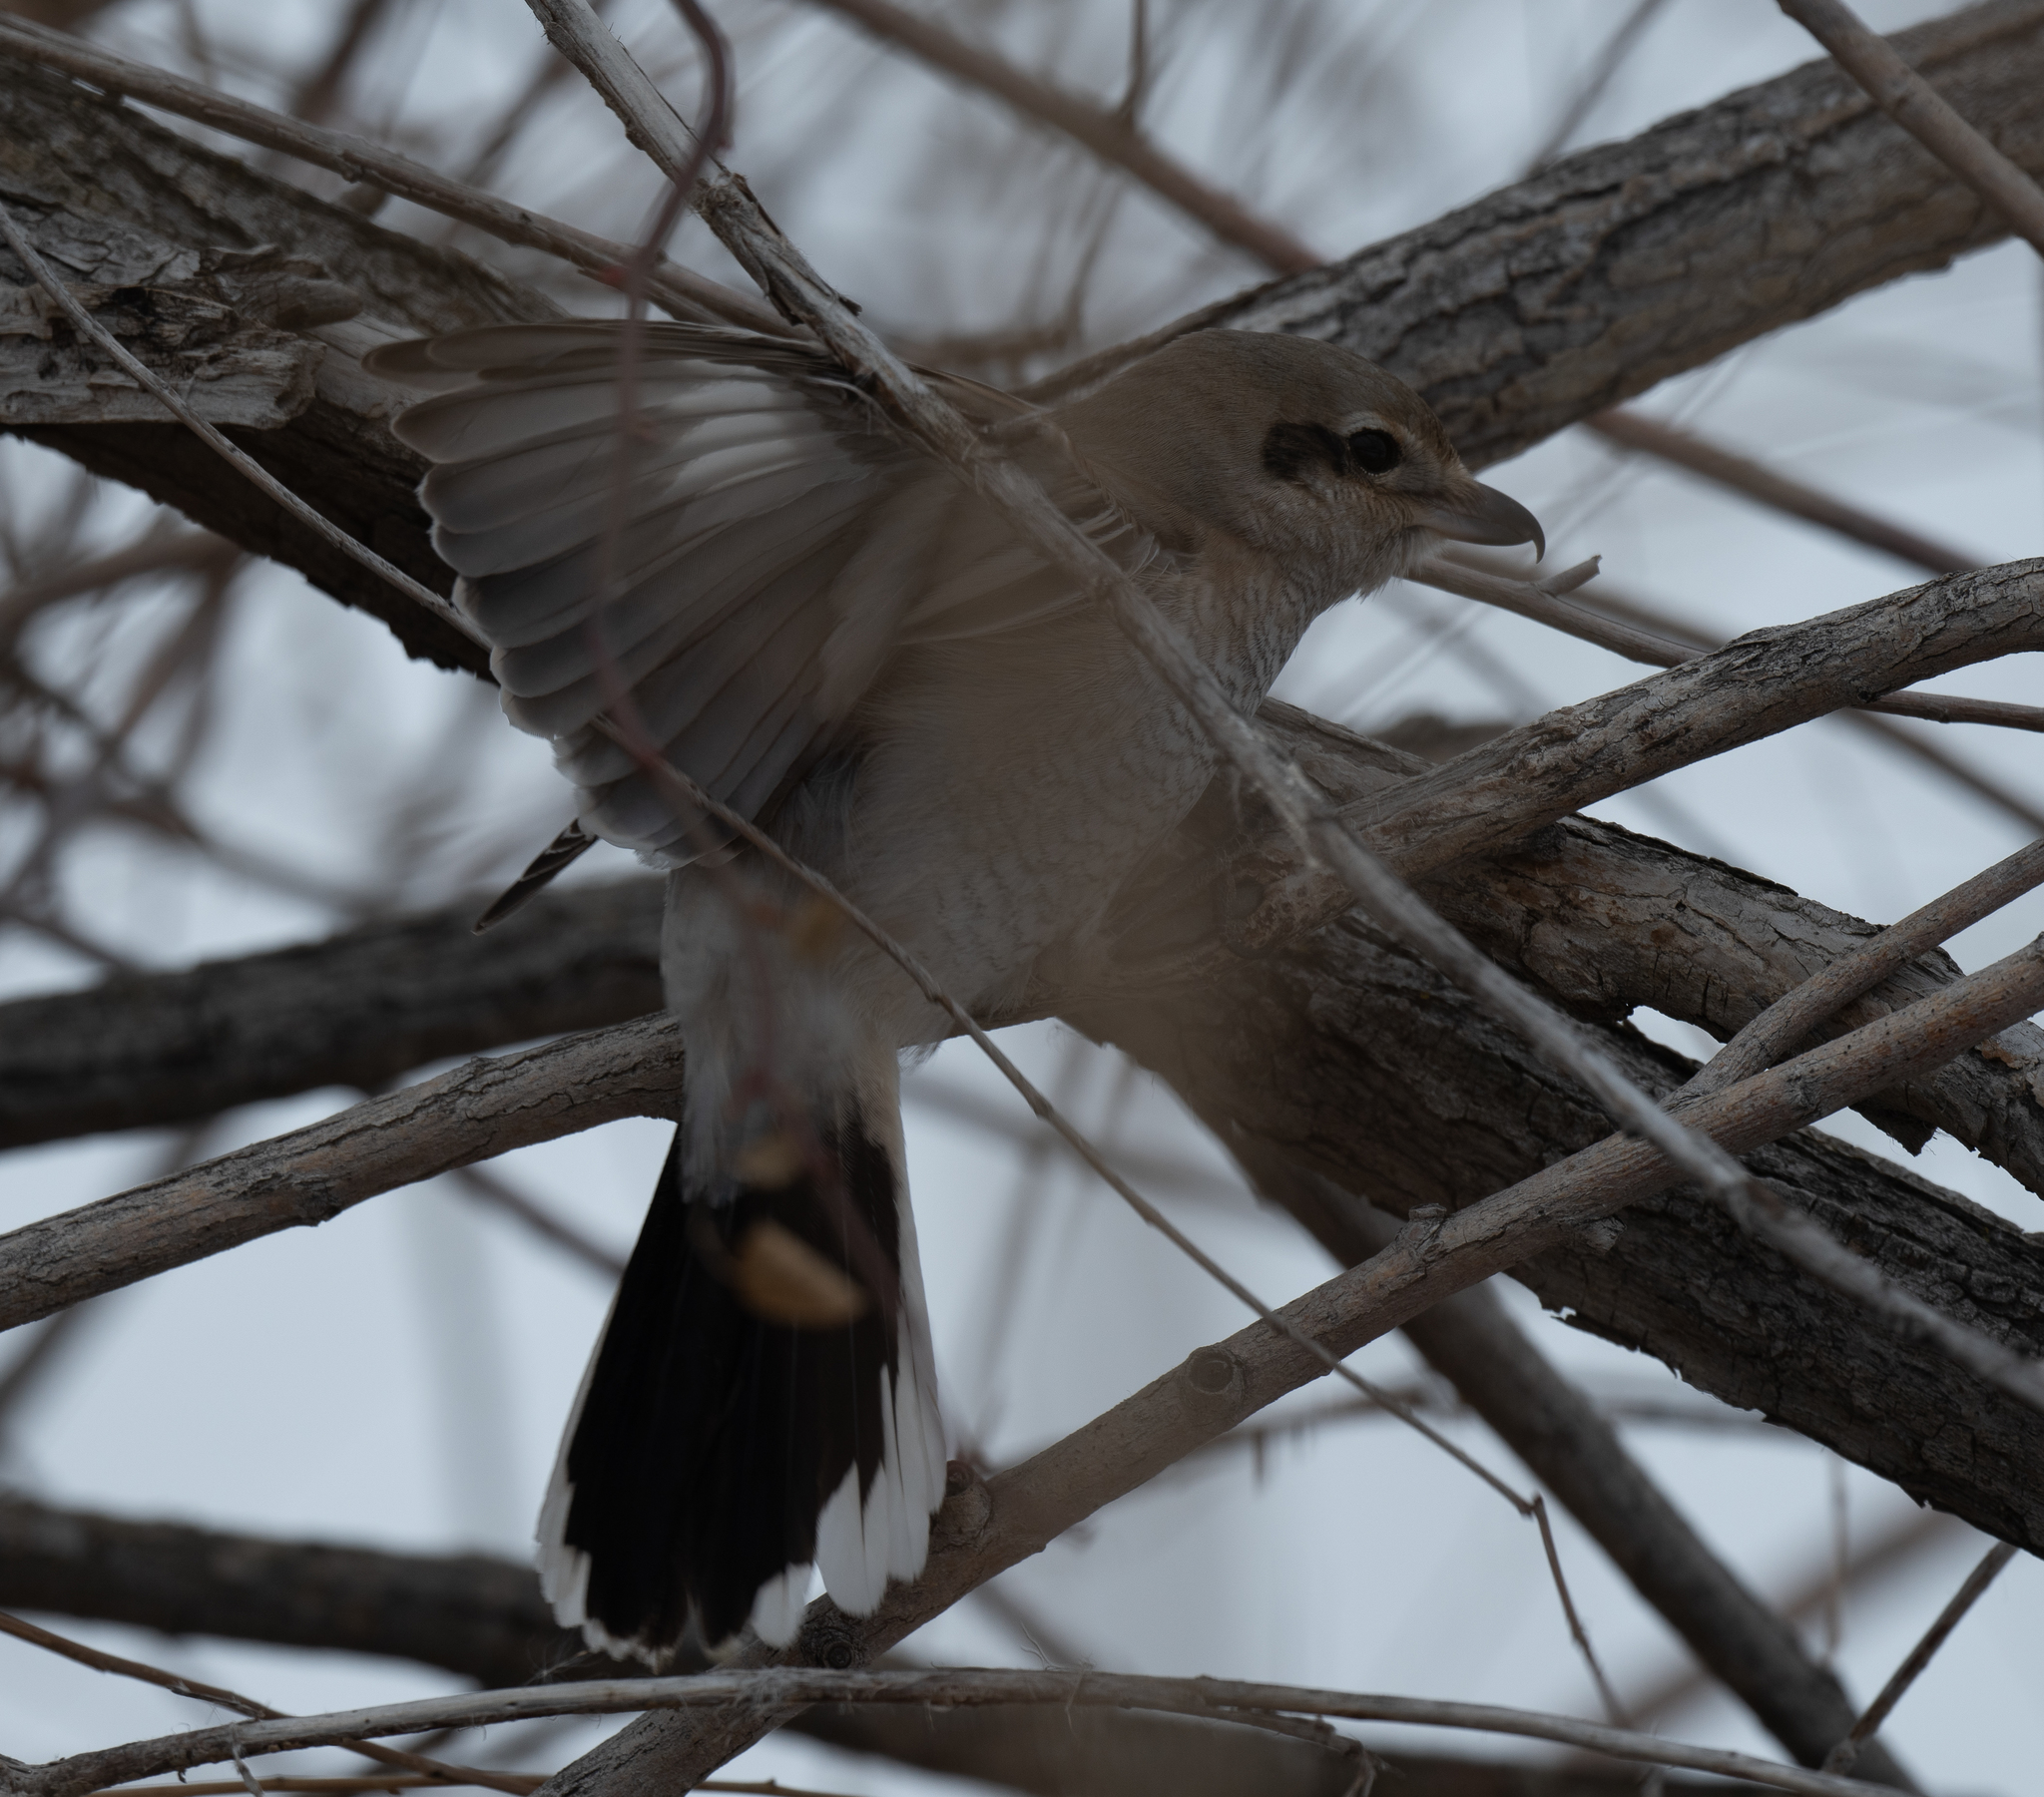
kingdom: Animalia
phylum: Chordata
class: Aves
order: Passeriformes
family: Laniidae
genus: Lanius
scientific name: Lanius borealis
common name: Northern shrike
